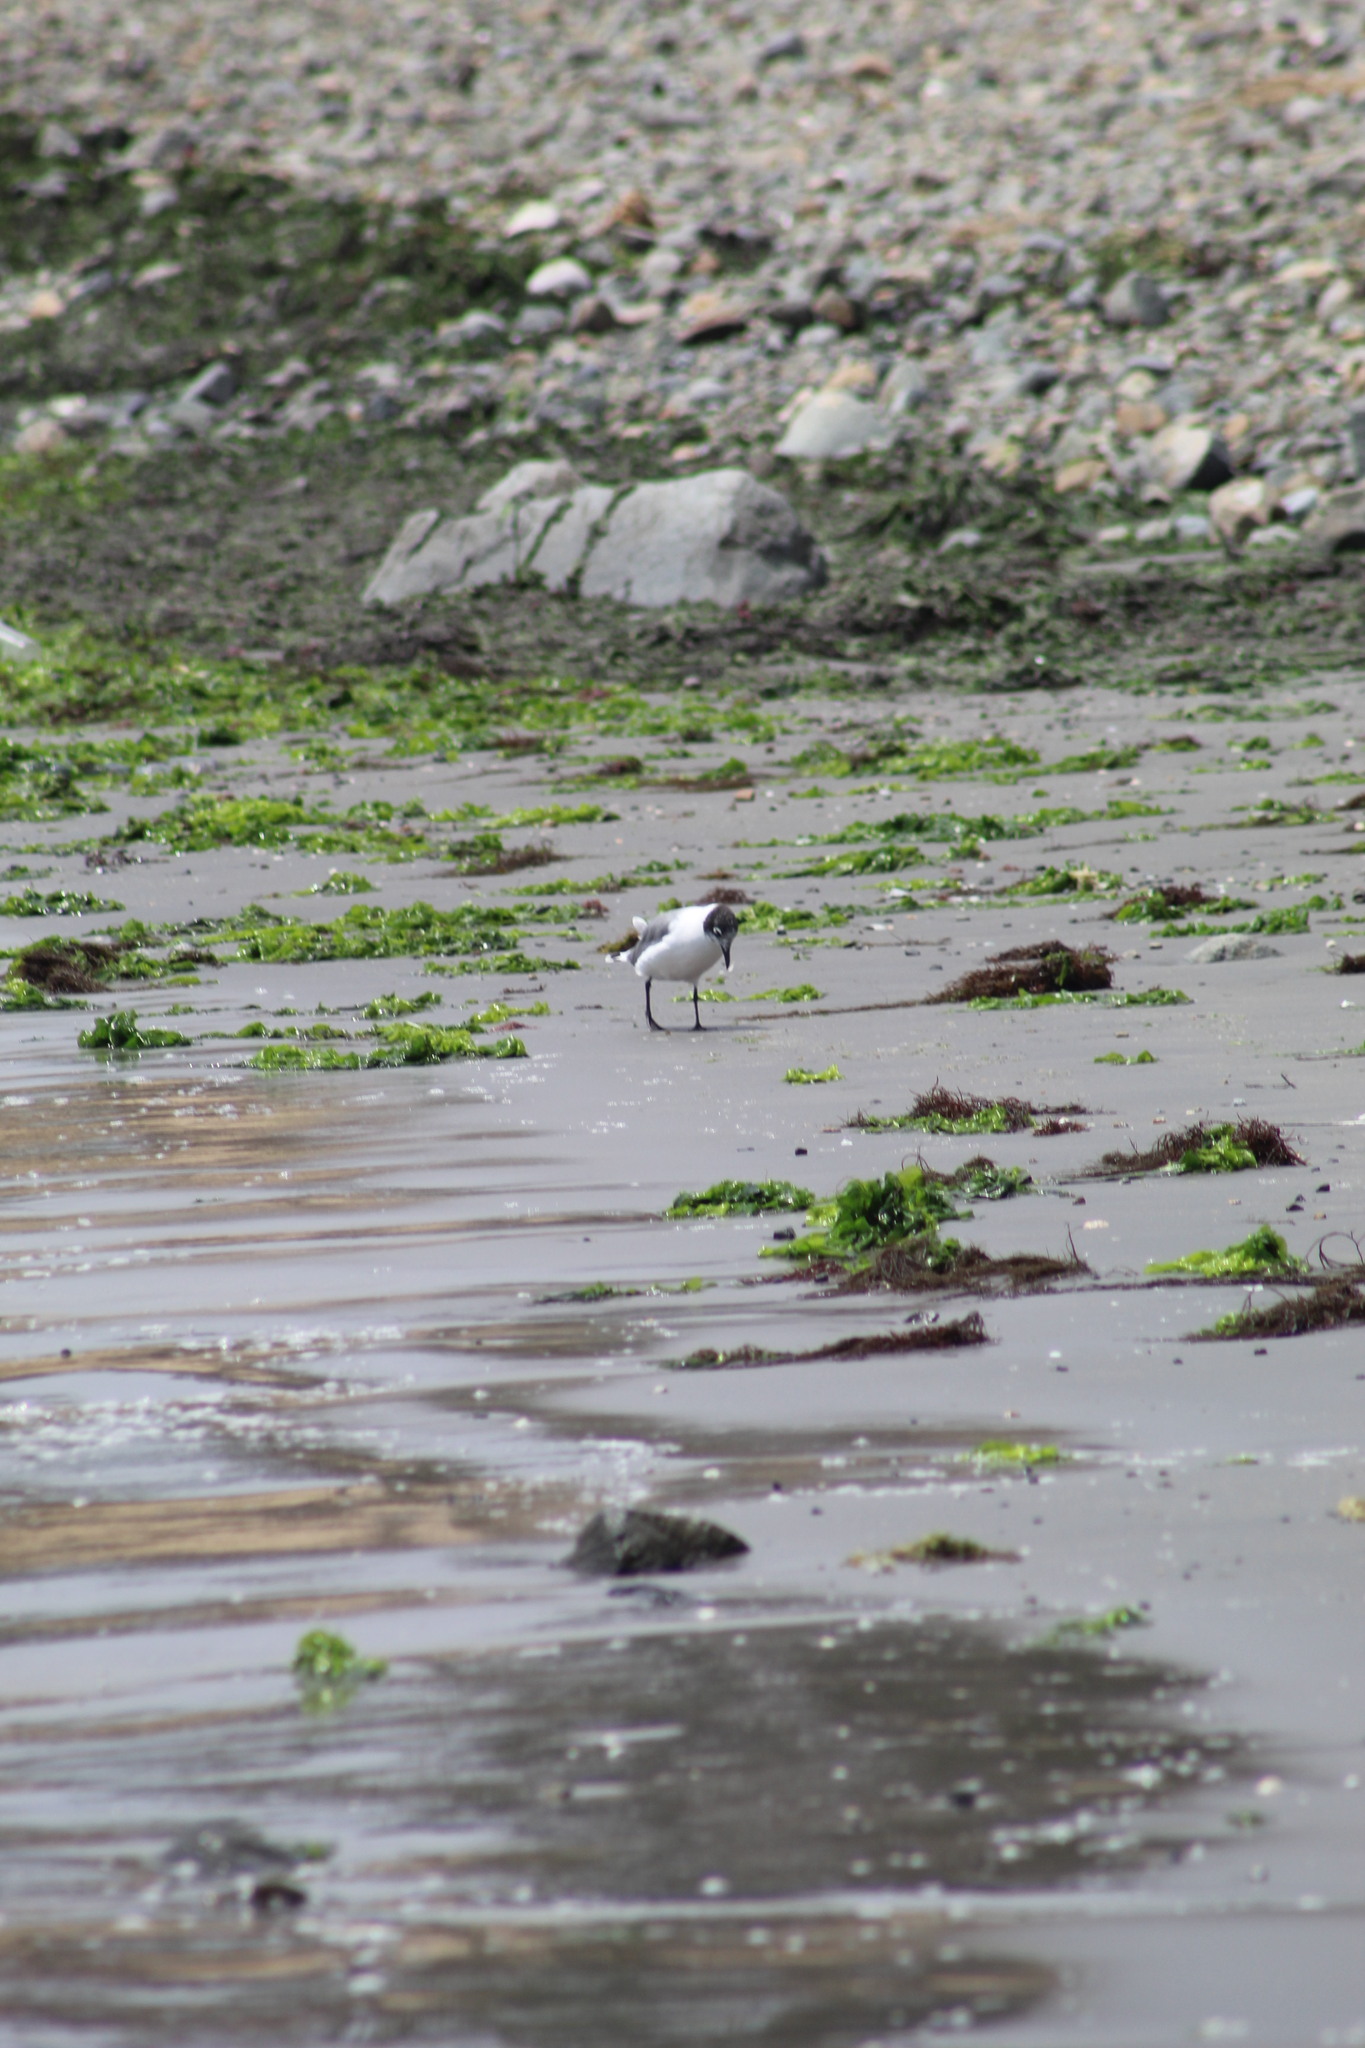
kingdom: Animalia
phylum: Chordata
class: Aves
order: Charadriiformes
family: Laridae
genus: Leucophaeus
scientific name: Leucophaeus pipixcan
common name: Franklin's gull
